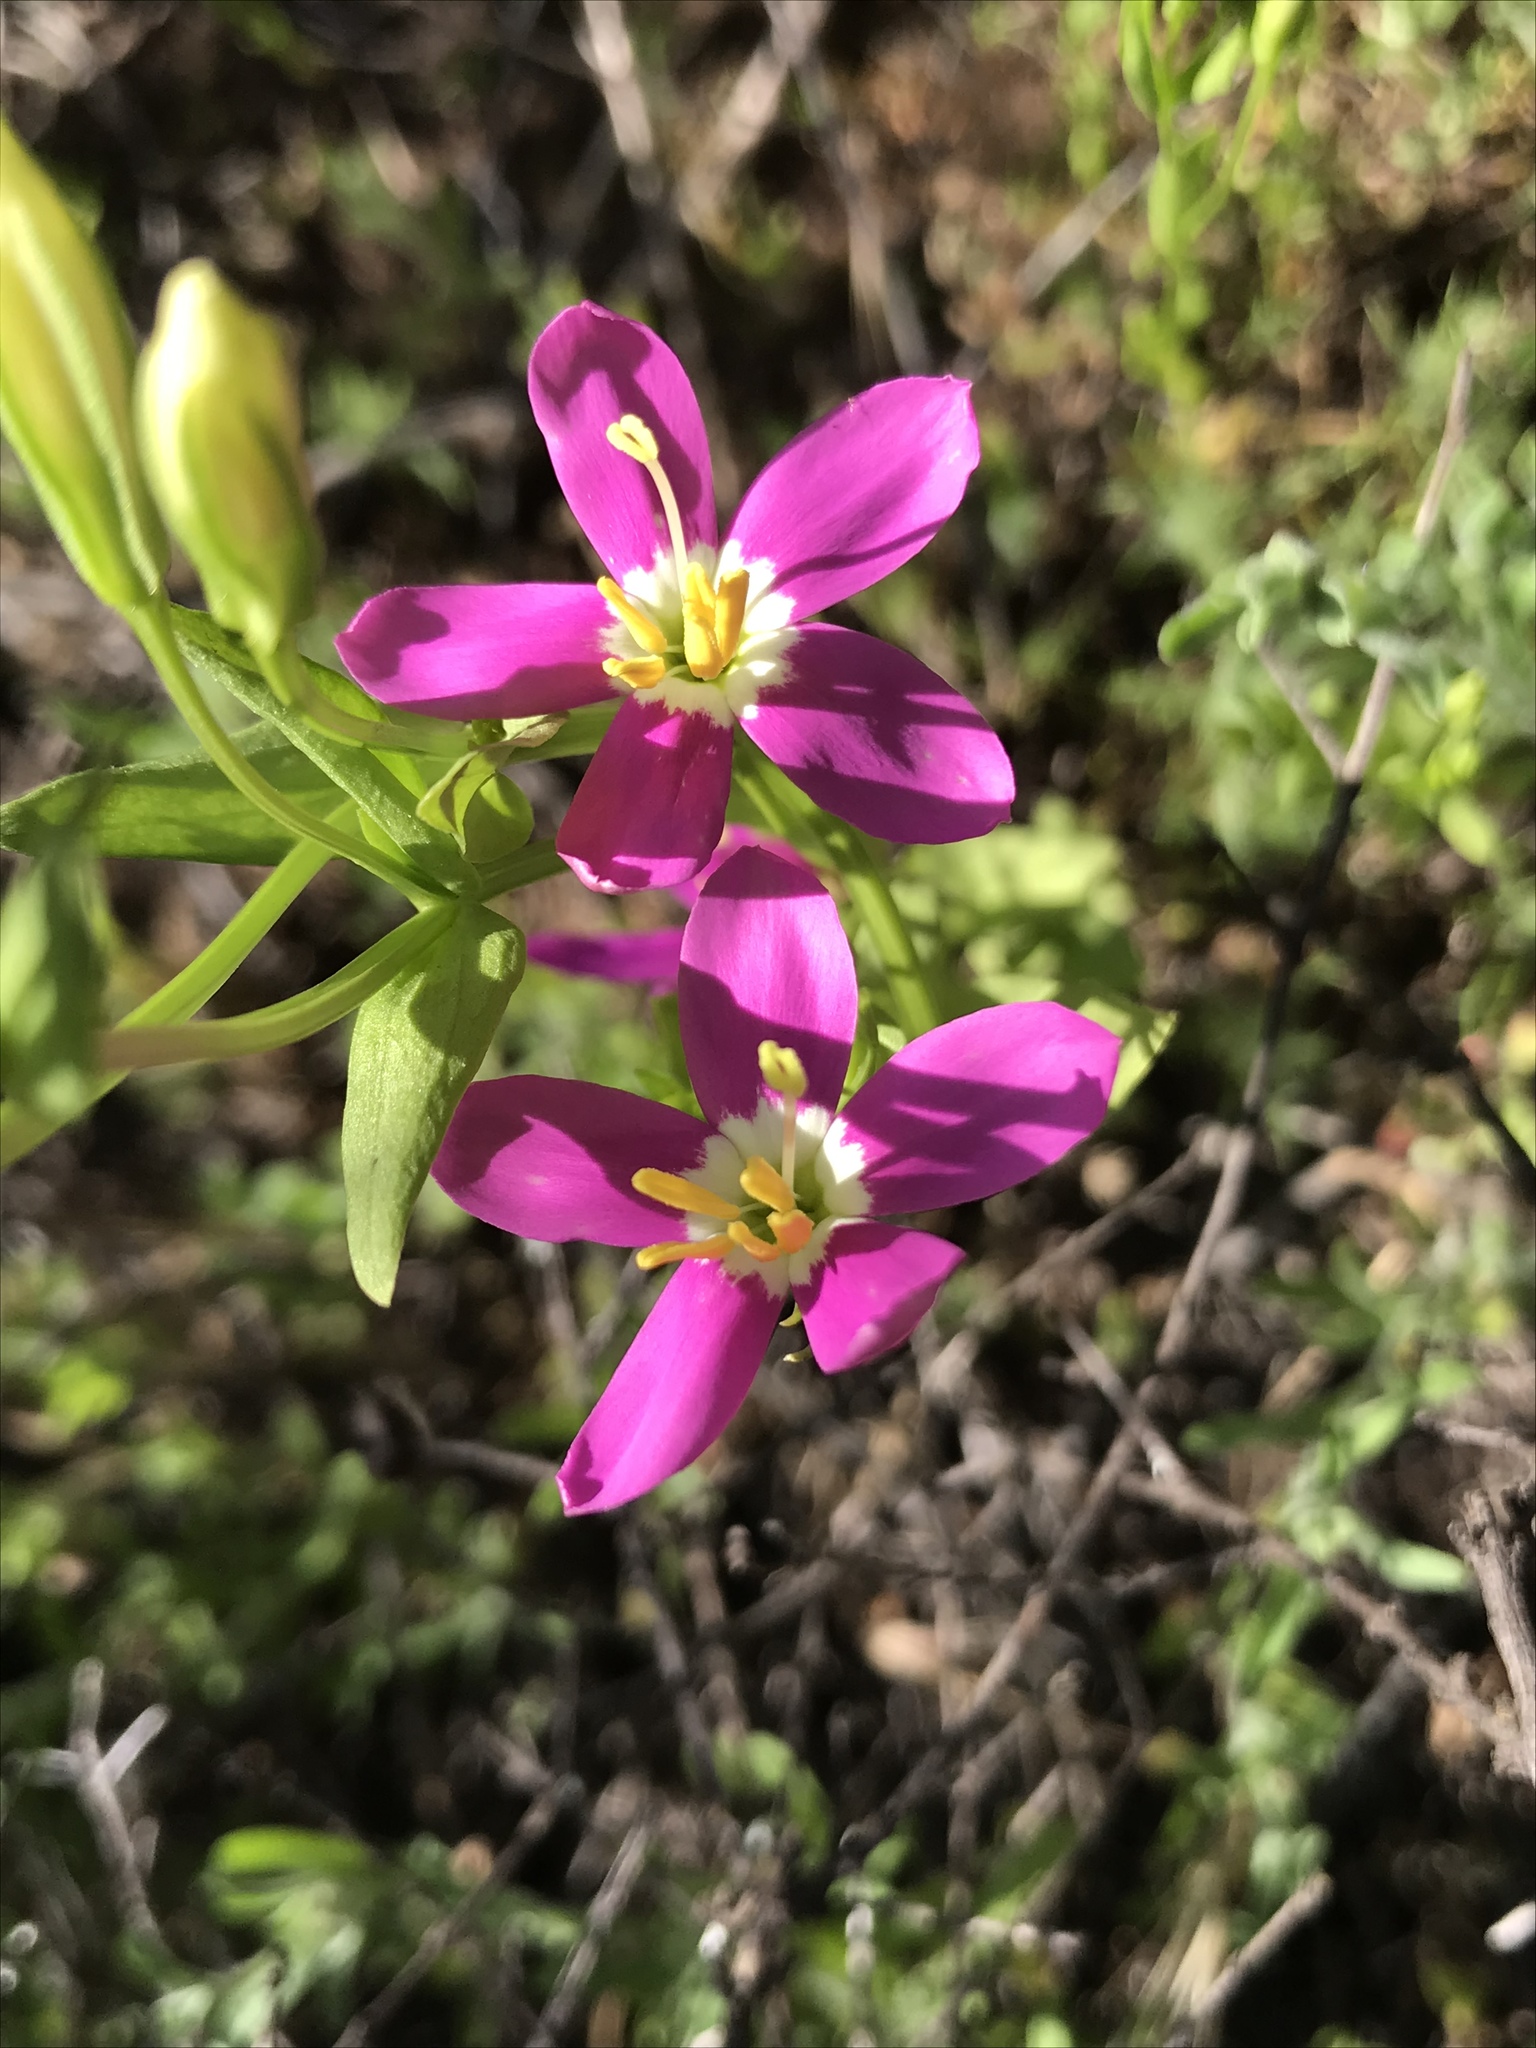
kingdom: Plantae
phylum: Tracheophyta
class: Magnoliopsida
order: Gentianales
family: Gentianaceae
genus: Zeltnera
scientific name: Zeltnera venusta
